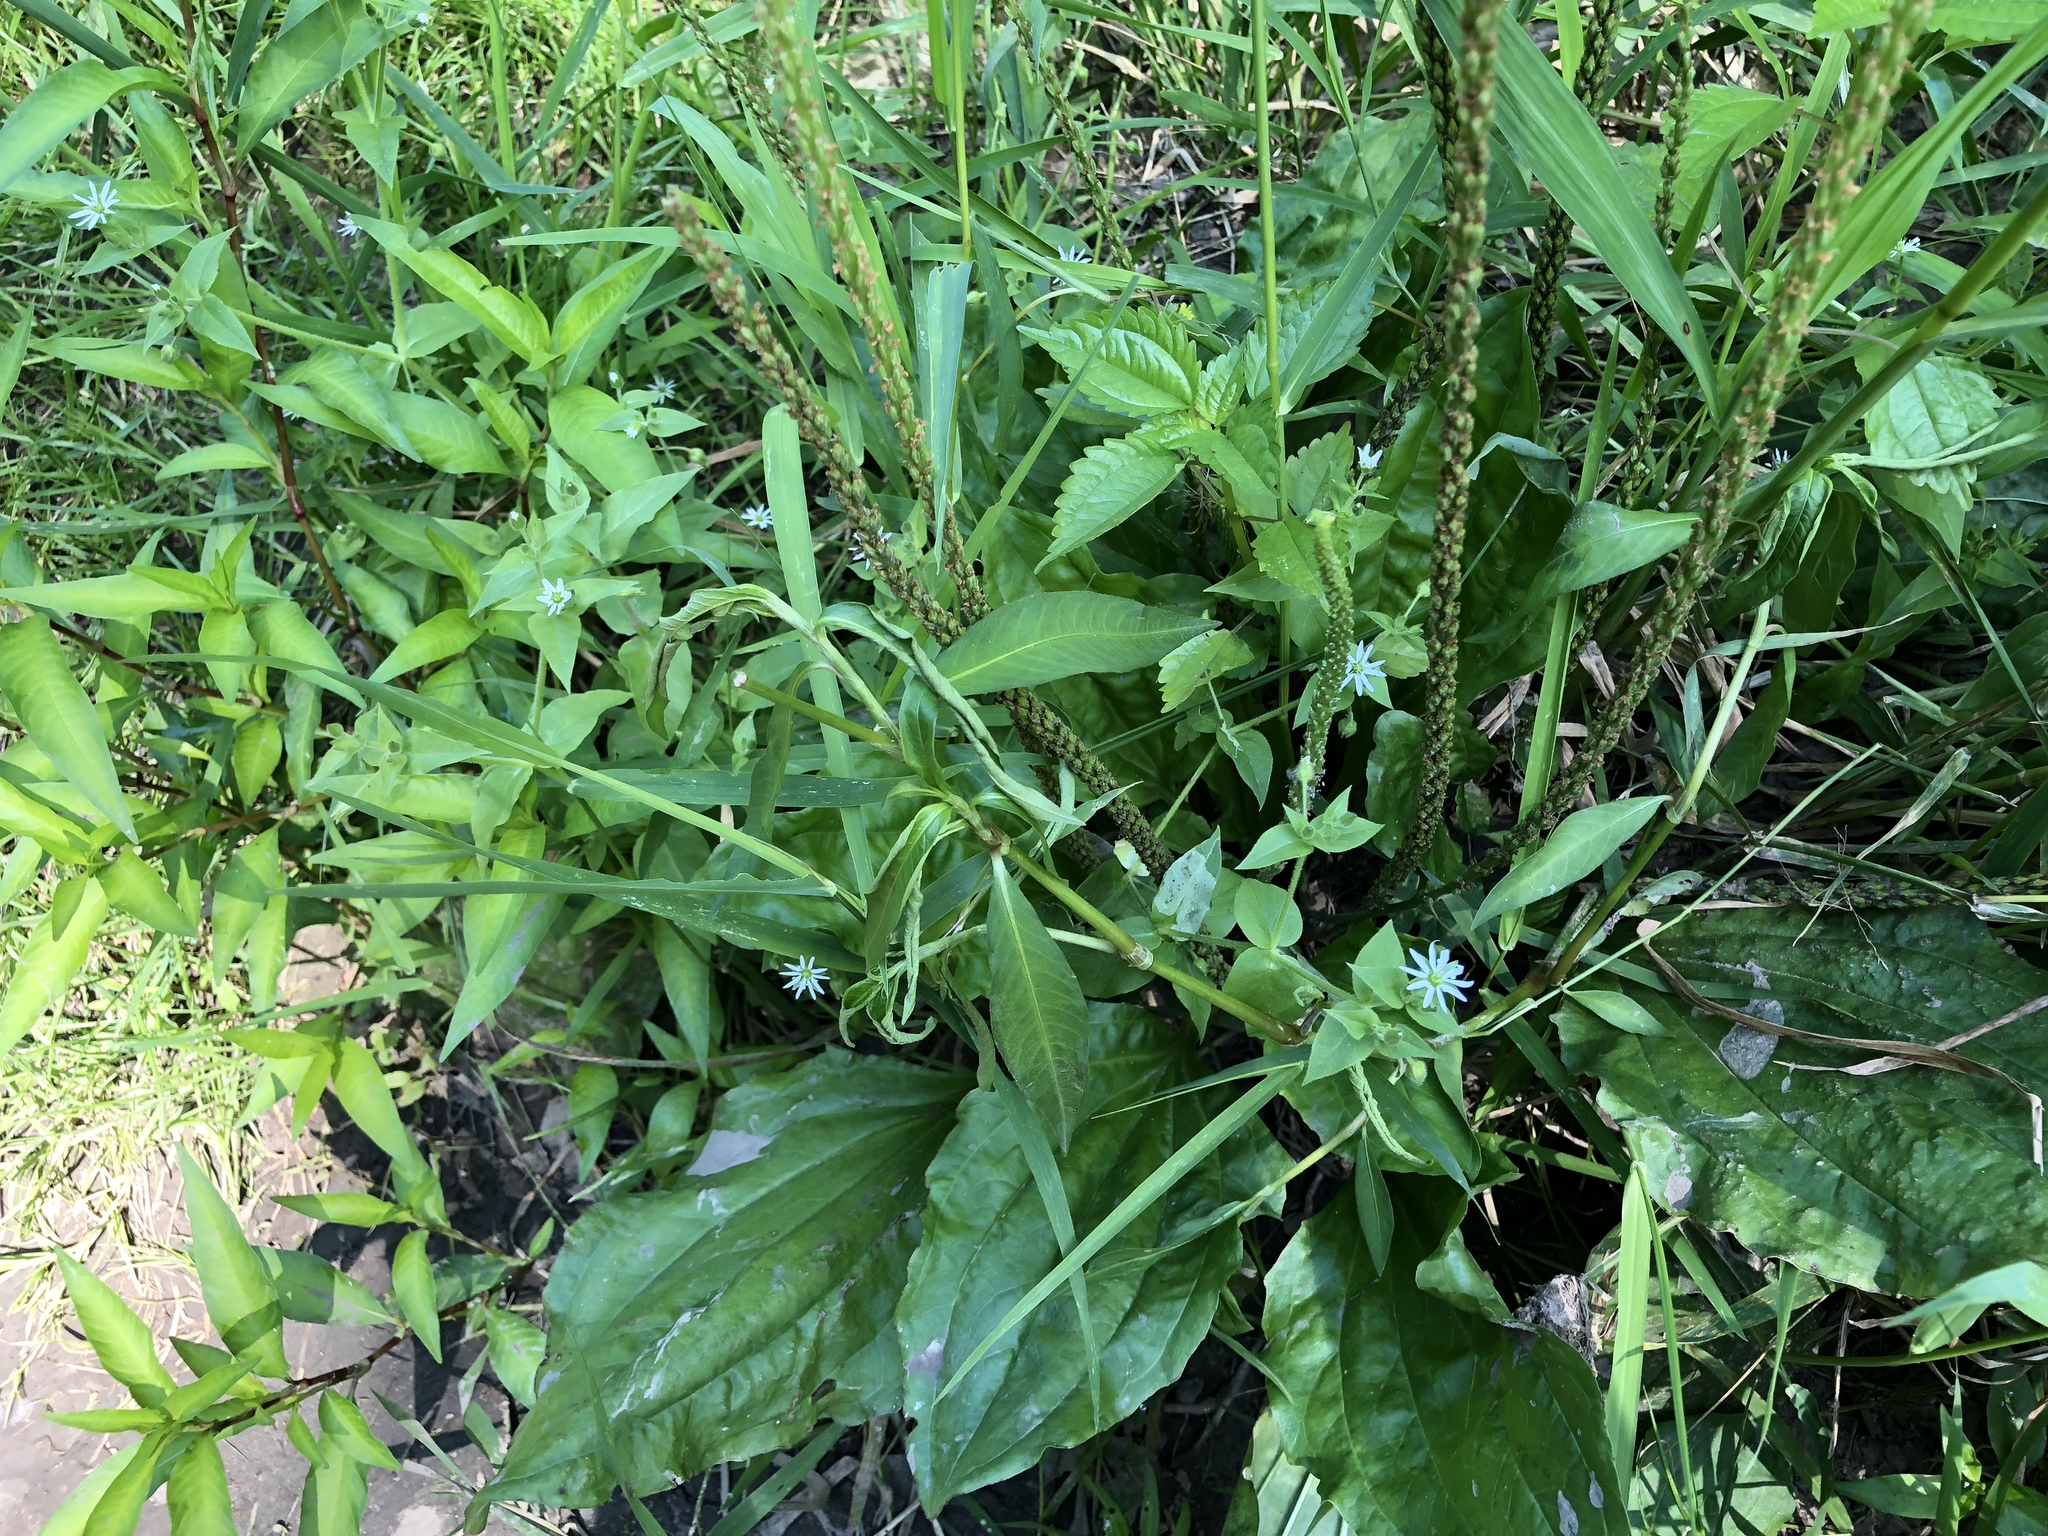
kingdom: Plantae
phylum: Tracheophyta
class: Magnoliopsida
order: Caryophyllales
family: Caryophyllaceae
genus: Stellaria
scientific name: Stellaria aquatica
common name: Water chickweed
